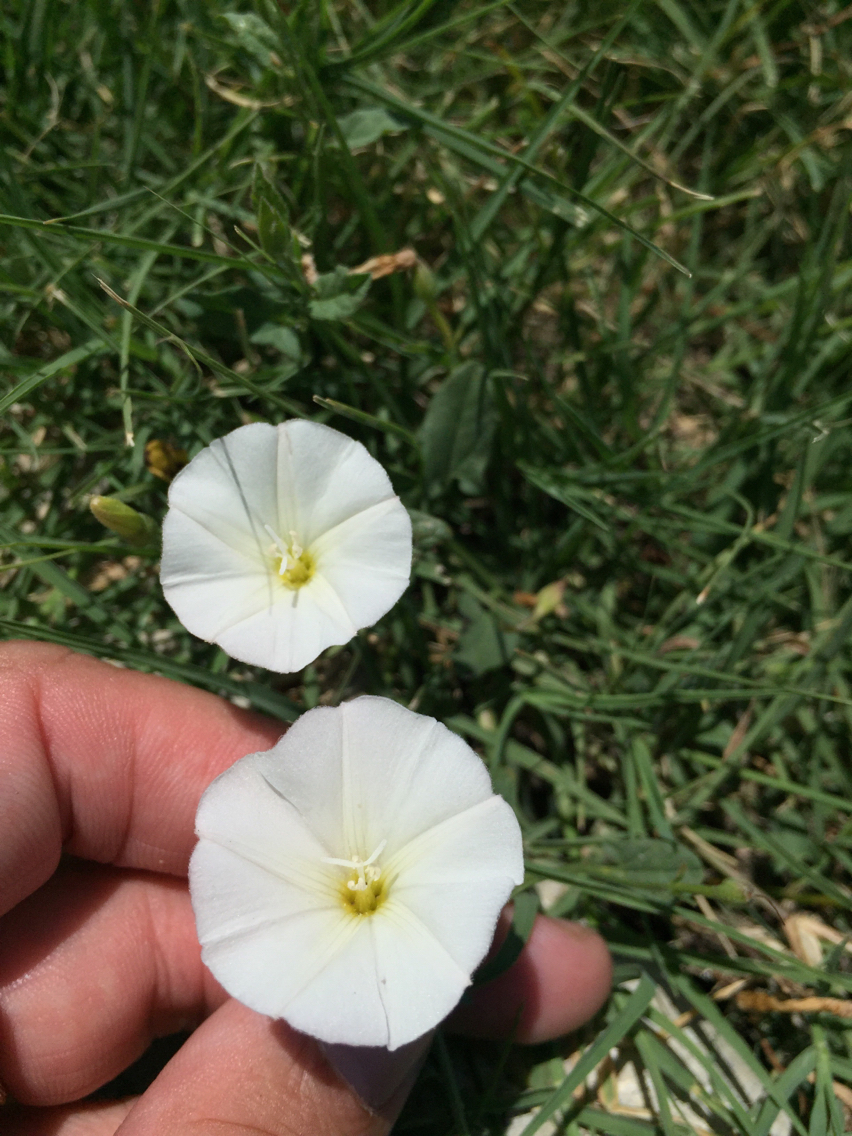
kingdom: Plantae
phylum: Tracheophyta
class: Magnoliopsida
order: Solanales
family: Convolvulaceae
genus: Convolvulus
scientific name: Convolvulus arvensis
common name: Field bindweed
